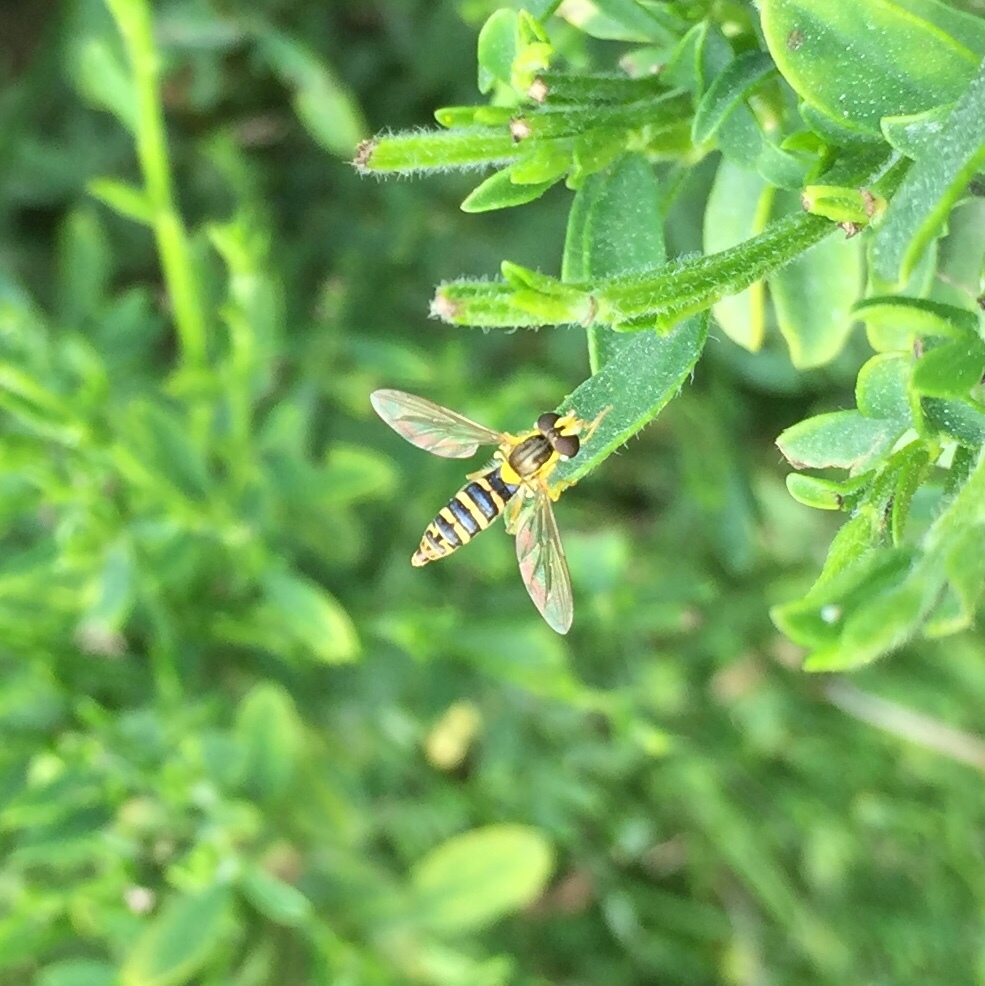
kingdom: Animalia
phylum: Arthropoda
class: Insecta
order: Diptera
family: Syrphidae
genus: Sphaerophoria
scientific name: Sphaerophoria
